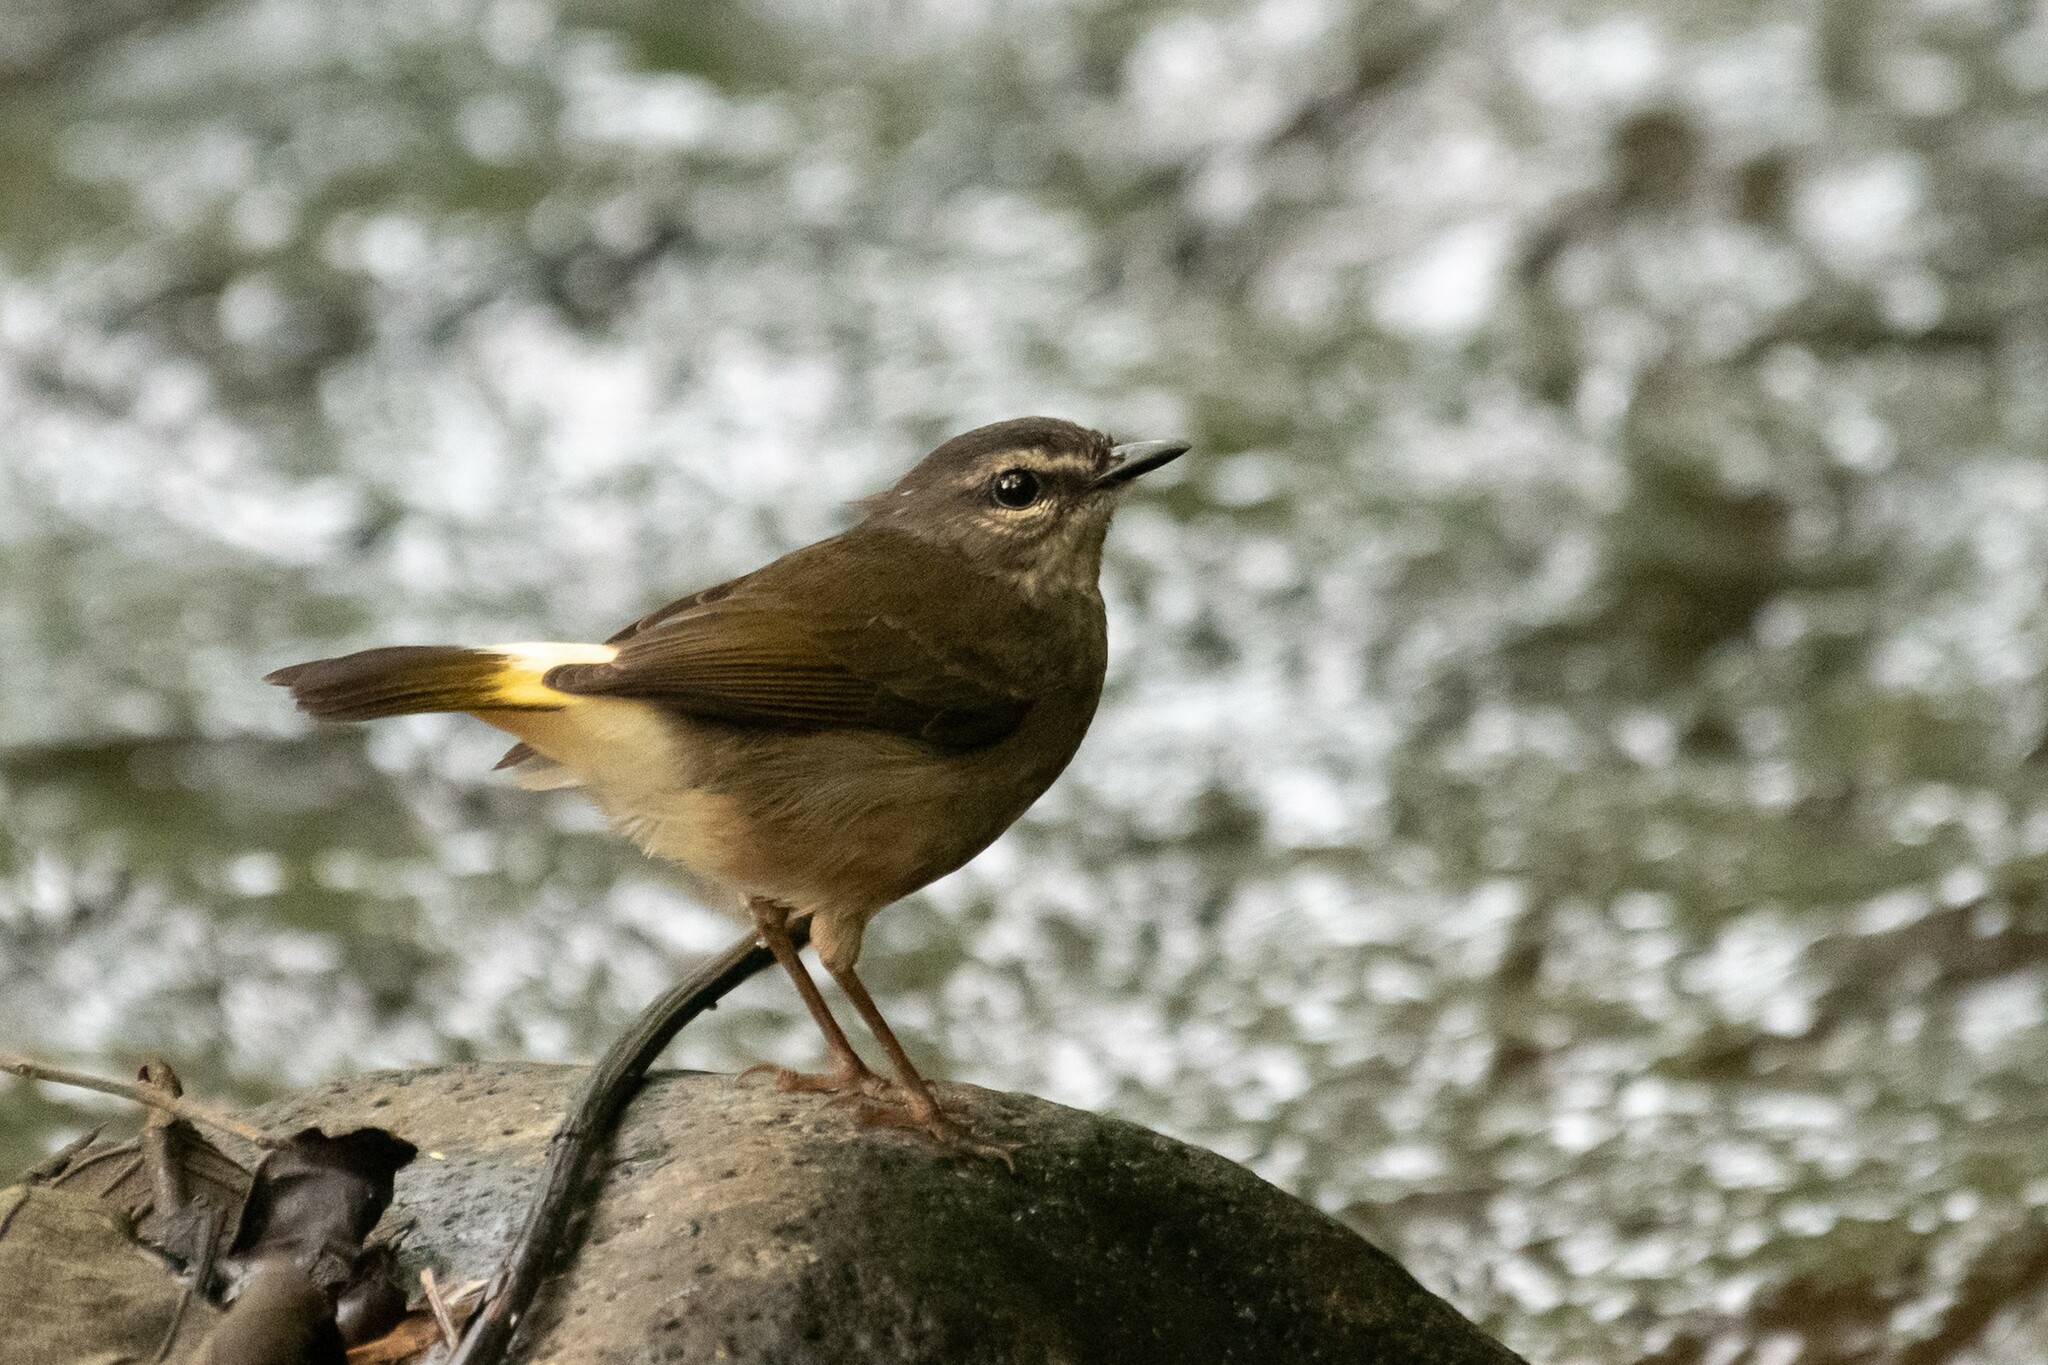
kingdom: Animalia
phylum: Chordata
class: Aves
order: Passeriformes
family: Parulidae
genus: Myiothlypis
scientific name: Myiothlypis fulvicauda
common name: Buff-rumped warbler
